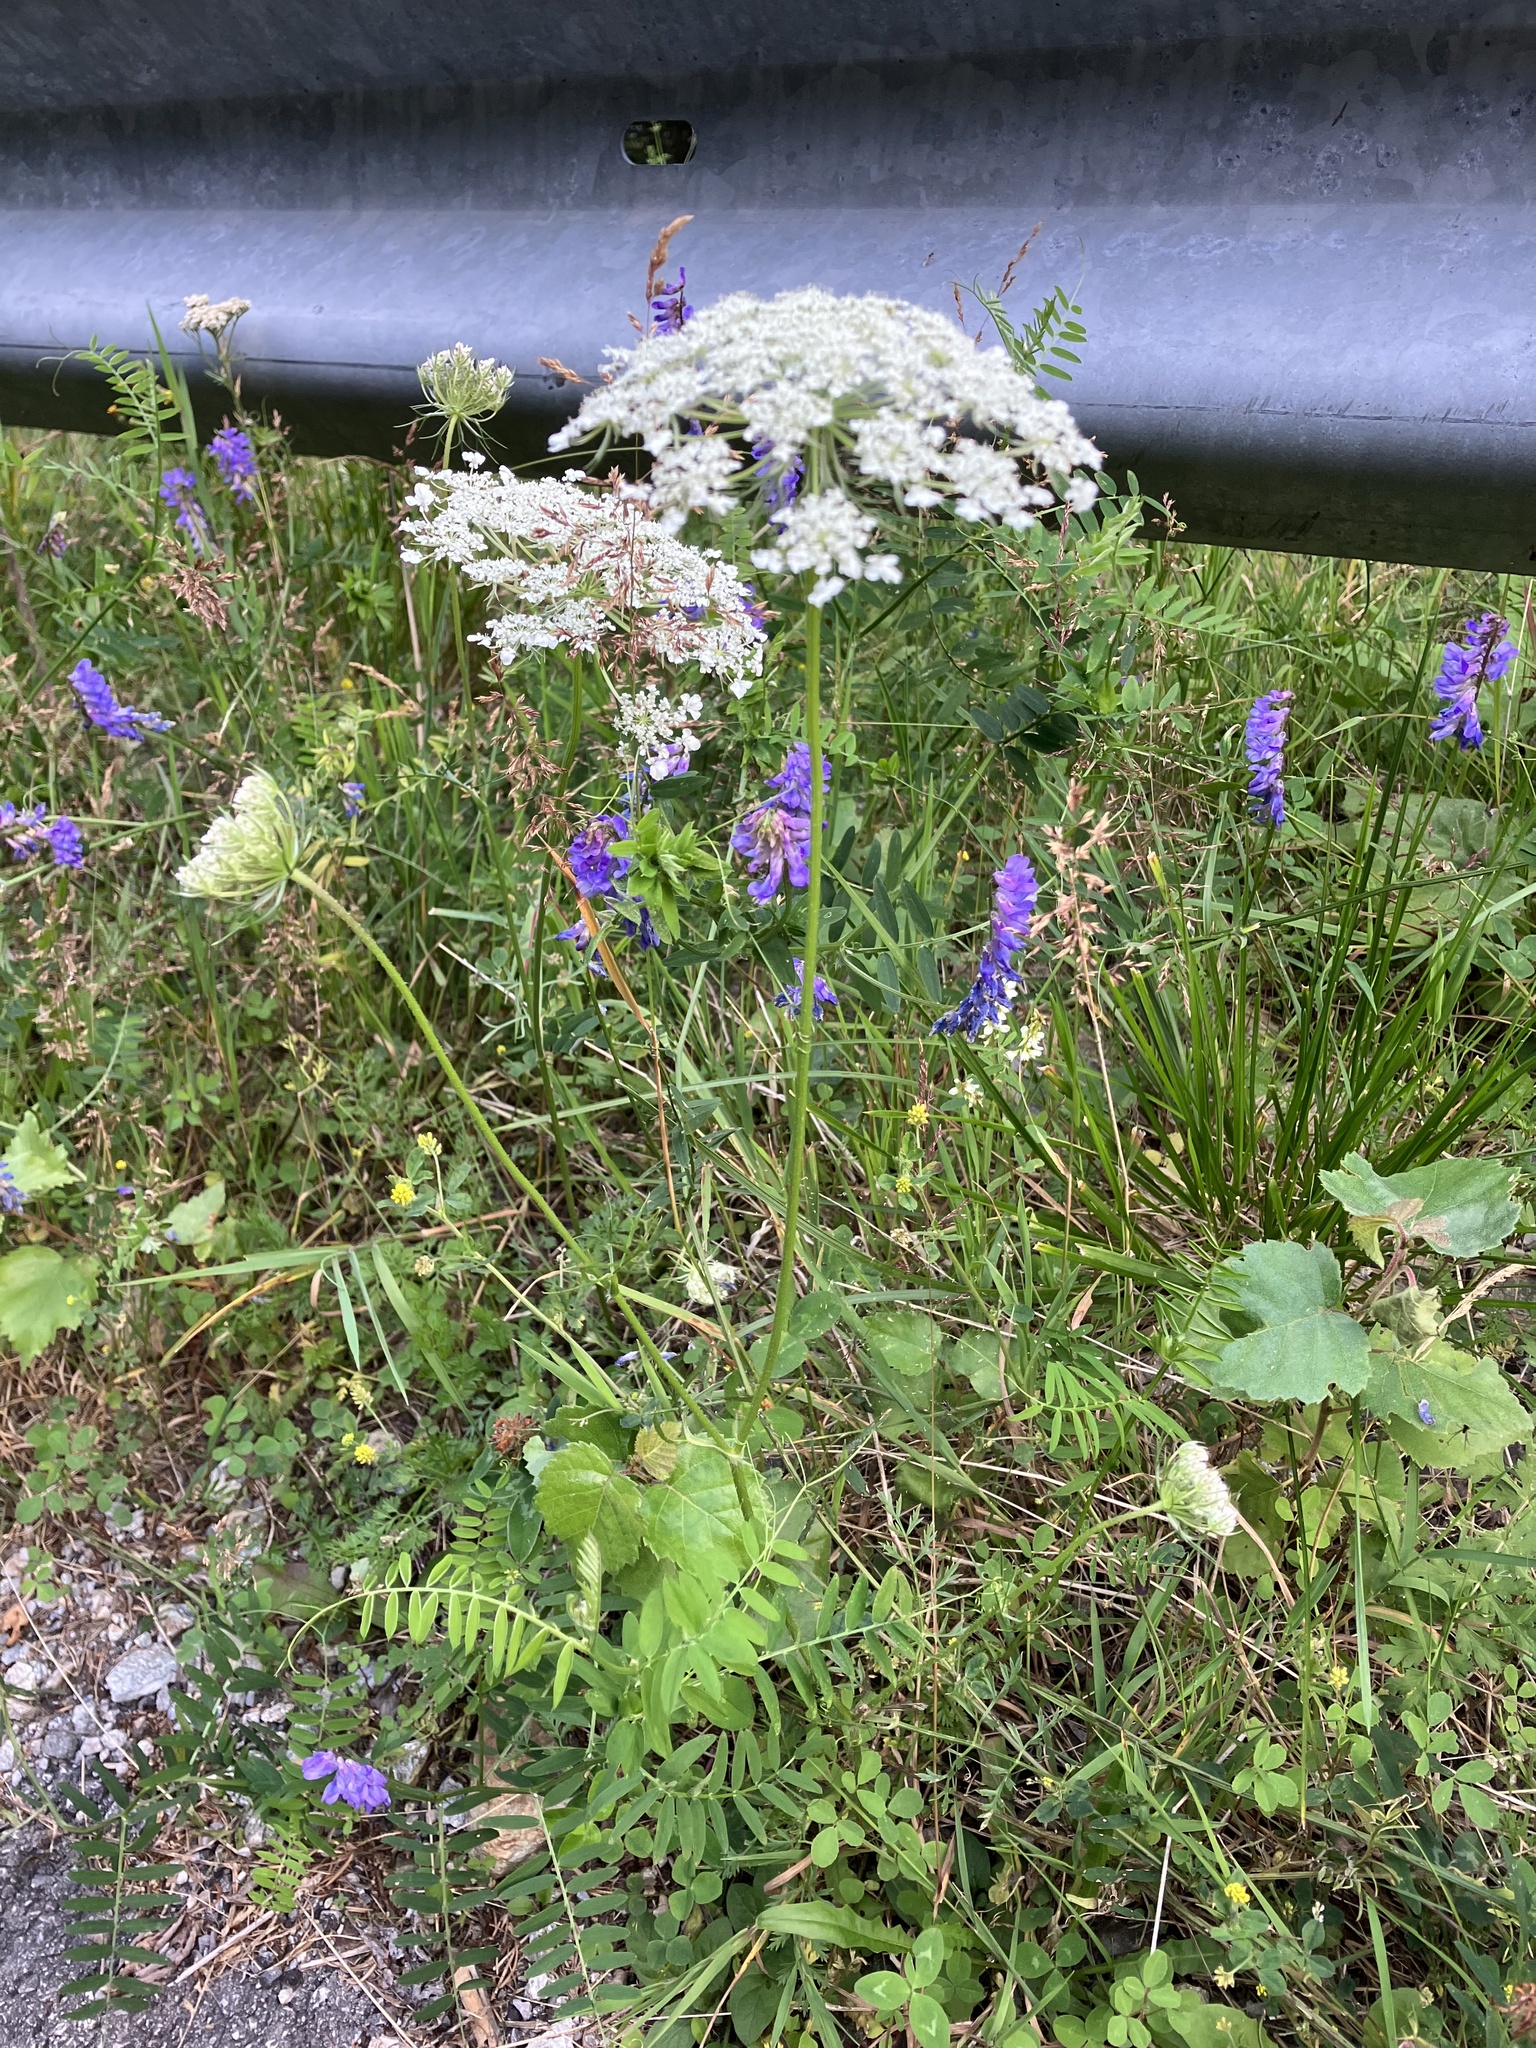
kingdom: Plantae
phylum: Tracheophyta
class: Magnoliopsida
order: Apiales
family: Apiaceae
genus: Daucus
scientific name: Daucus carota
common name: Wild carrot
